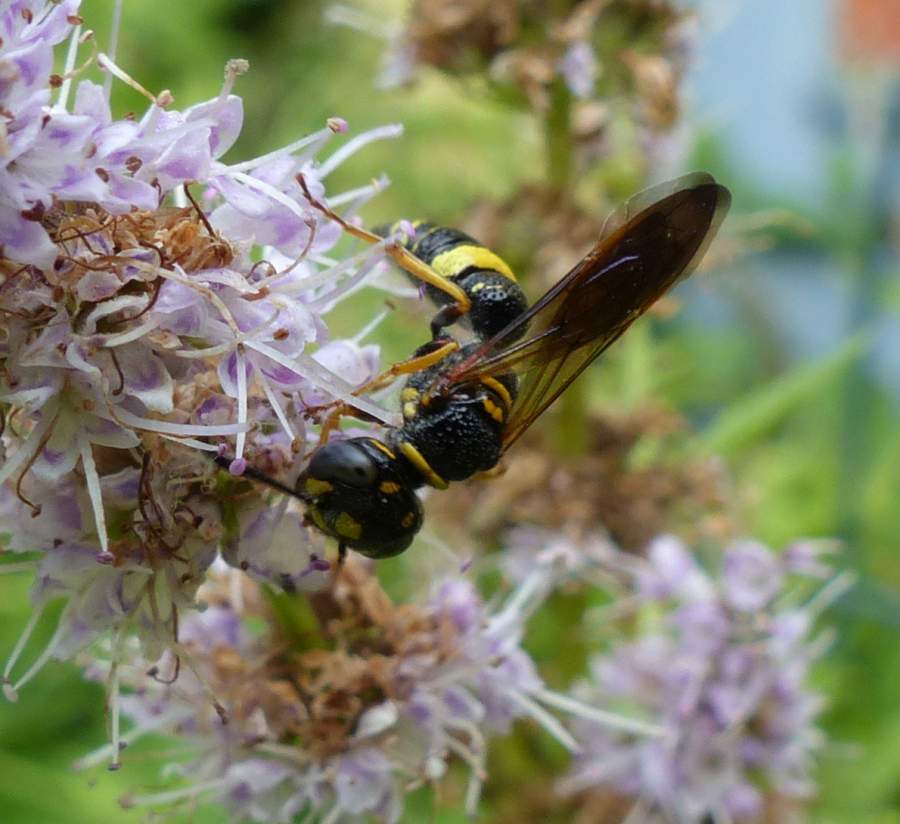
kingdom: Animalia
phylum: Arthropoda
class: Insecta
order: Hymenoptera
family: Crabronidae
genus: Philanthus
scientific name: Philanthus gibbosus
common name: Humped beewolf
